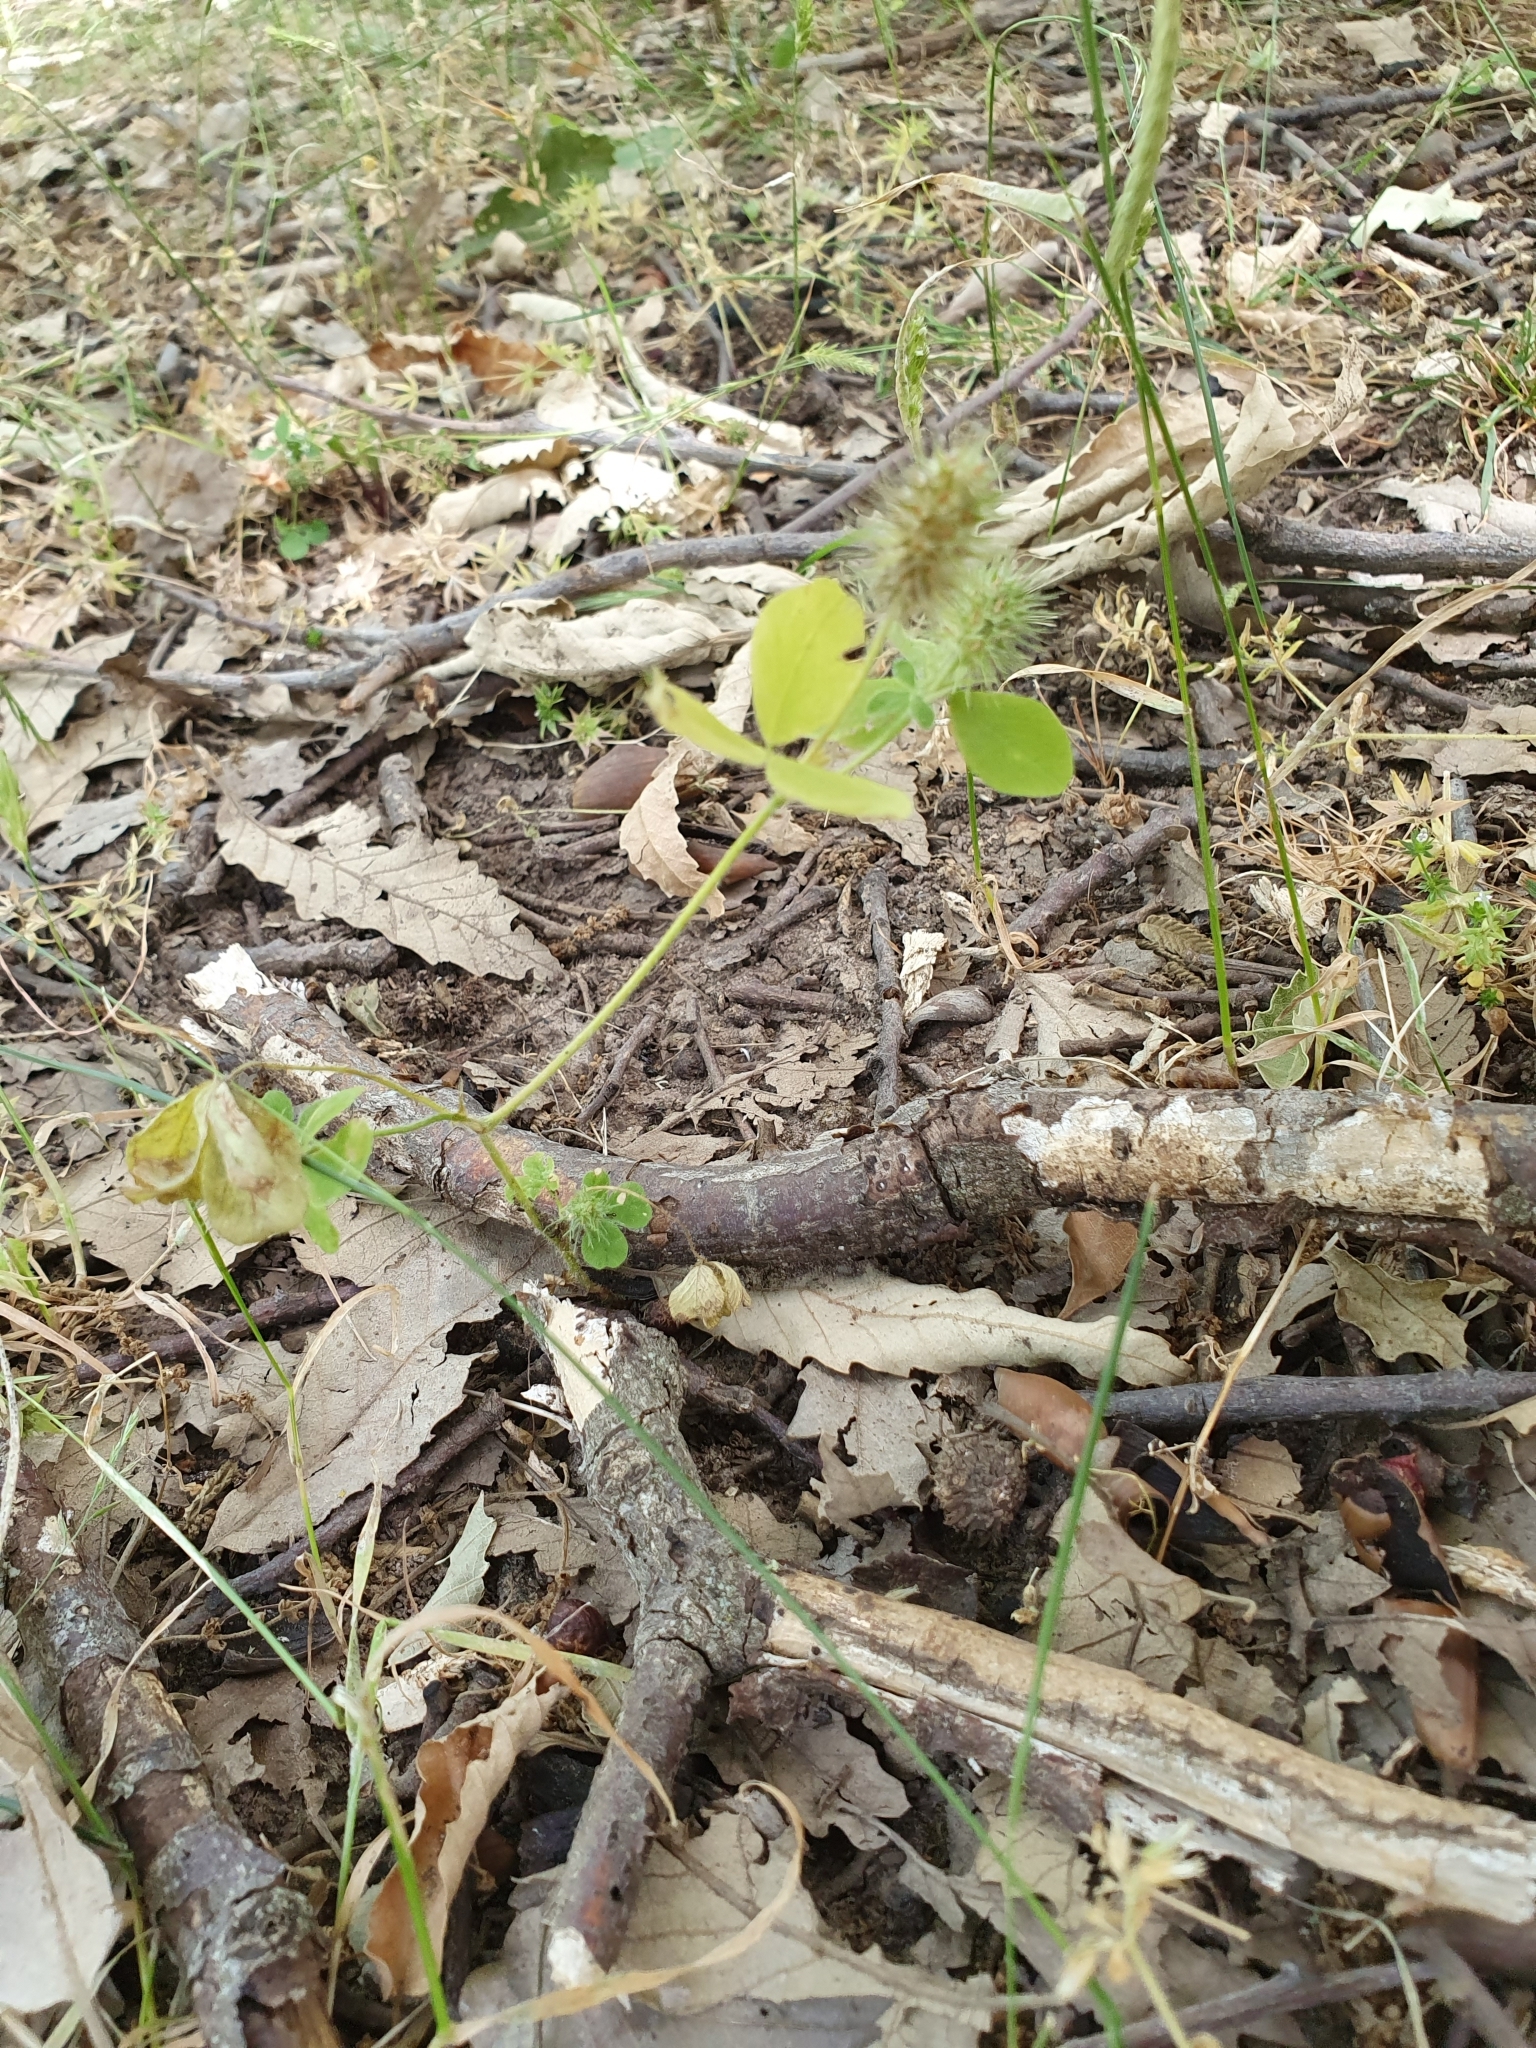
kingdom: Plantae
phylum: Tracheophyta
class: Magnoliopsida
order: Fabales
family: Fabaceae
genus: Trifolium
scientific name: Trifolium lappaceum
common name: Bur clover
